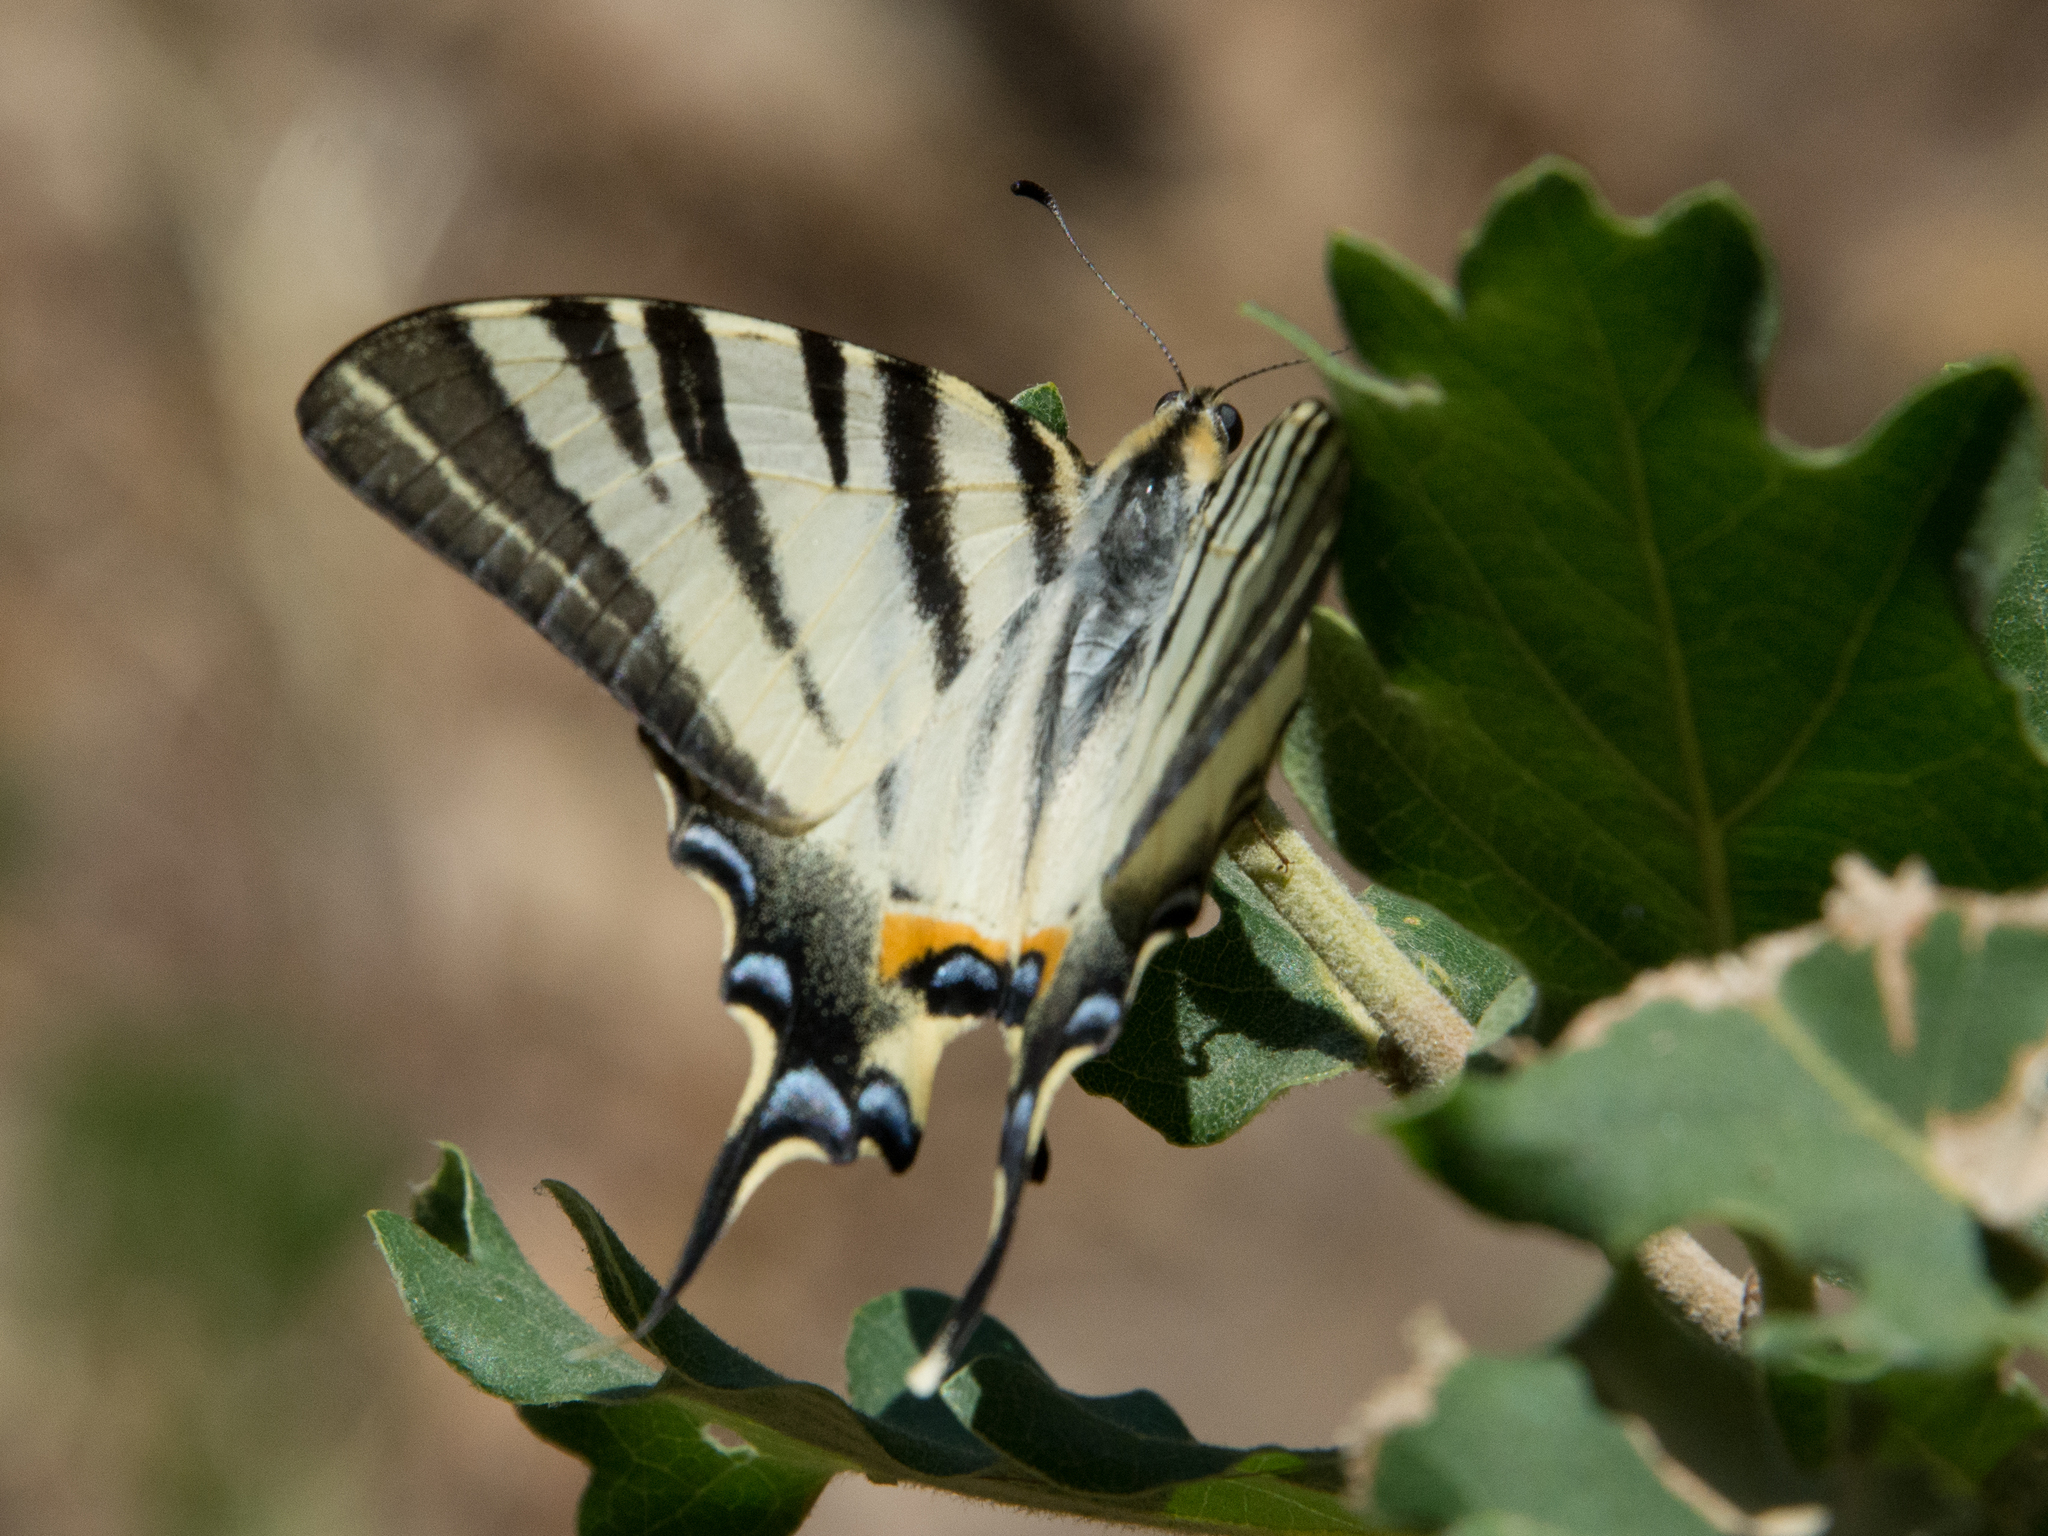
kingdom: Animalia
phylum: Arthropoda
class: Insecta
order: Lepidoptera
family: Papilionidae
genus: Iphiclides
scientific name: Iphiclides podalirius
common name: Scarce swallowtail
